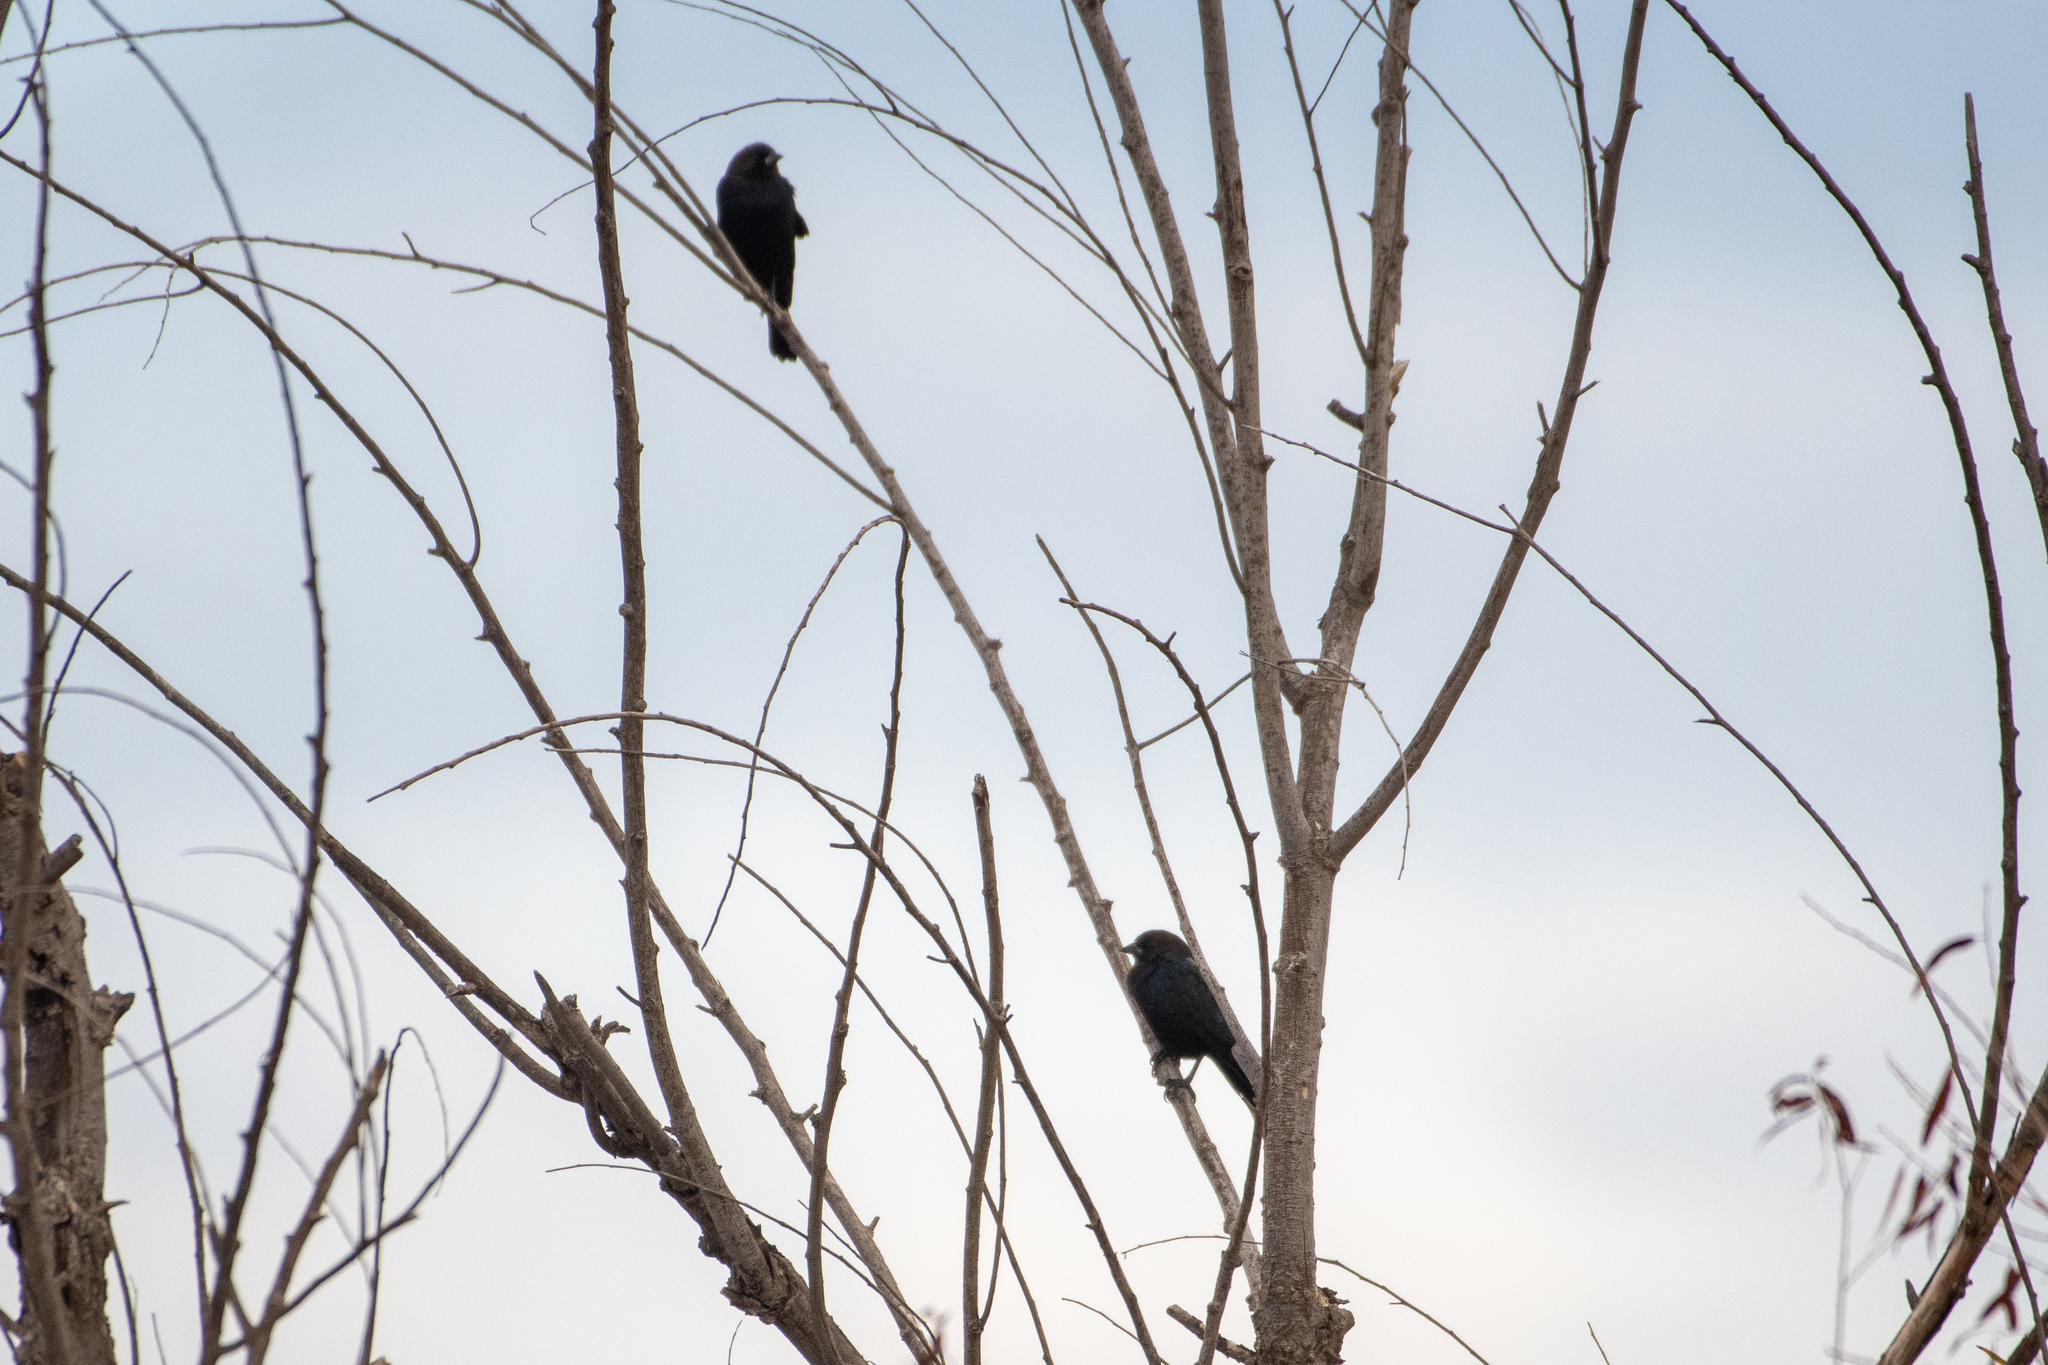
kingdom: Animalia
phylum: Chordata
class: Aves
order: Passeriformes
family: Icteridae
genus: Molothrus
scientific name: Molothrus ater
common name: Brown-headed cowbird
